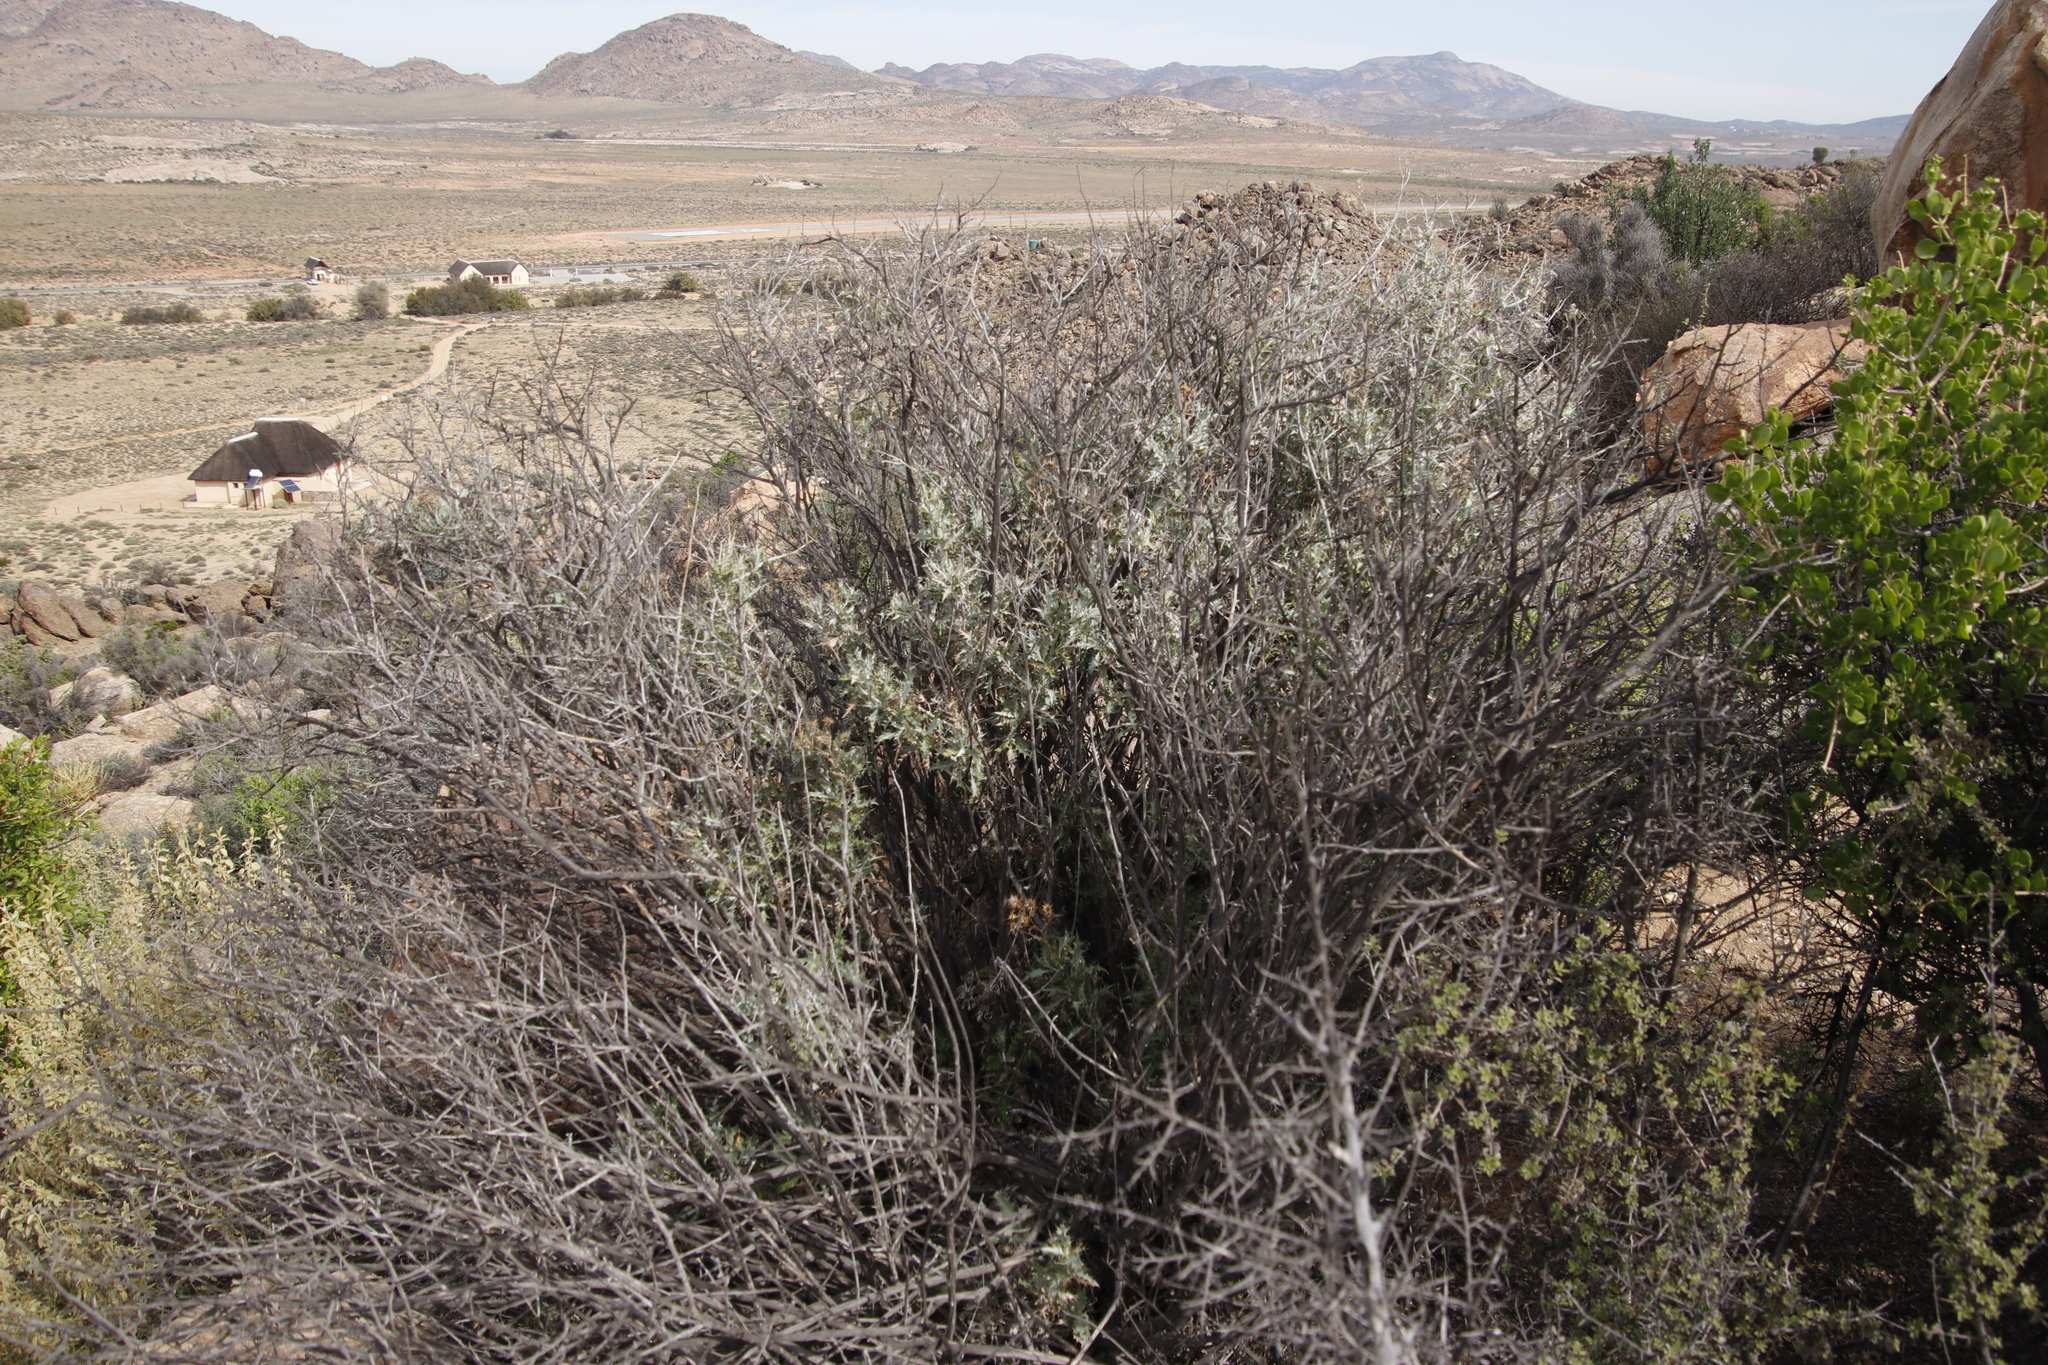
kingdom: Plantae
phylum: Tracheophyta
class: Magnoliopsida
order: Asterales
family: Asteraceae
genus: Berkheya
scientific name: Berkheya canescens
